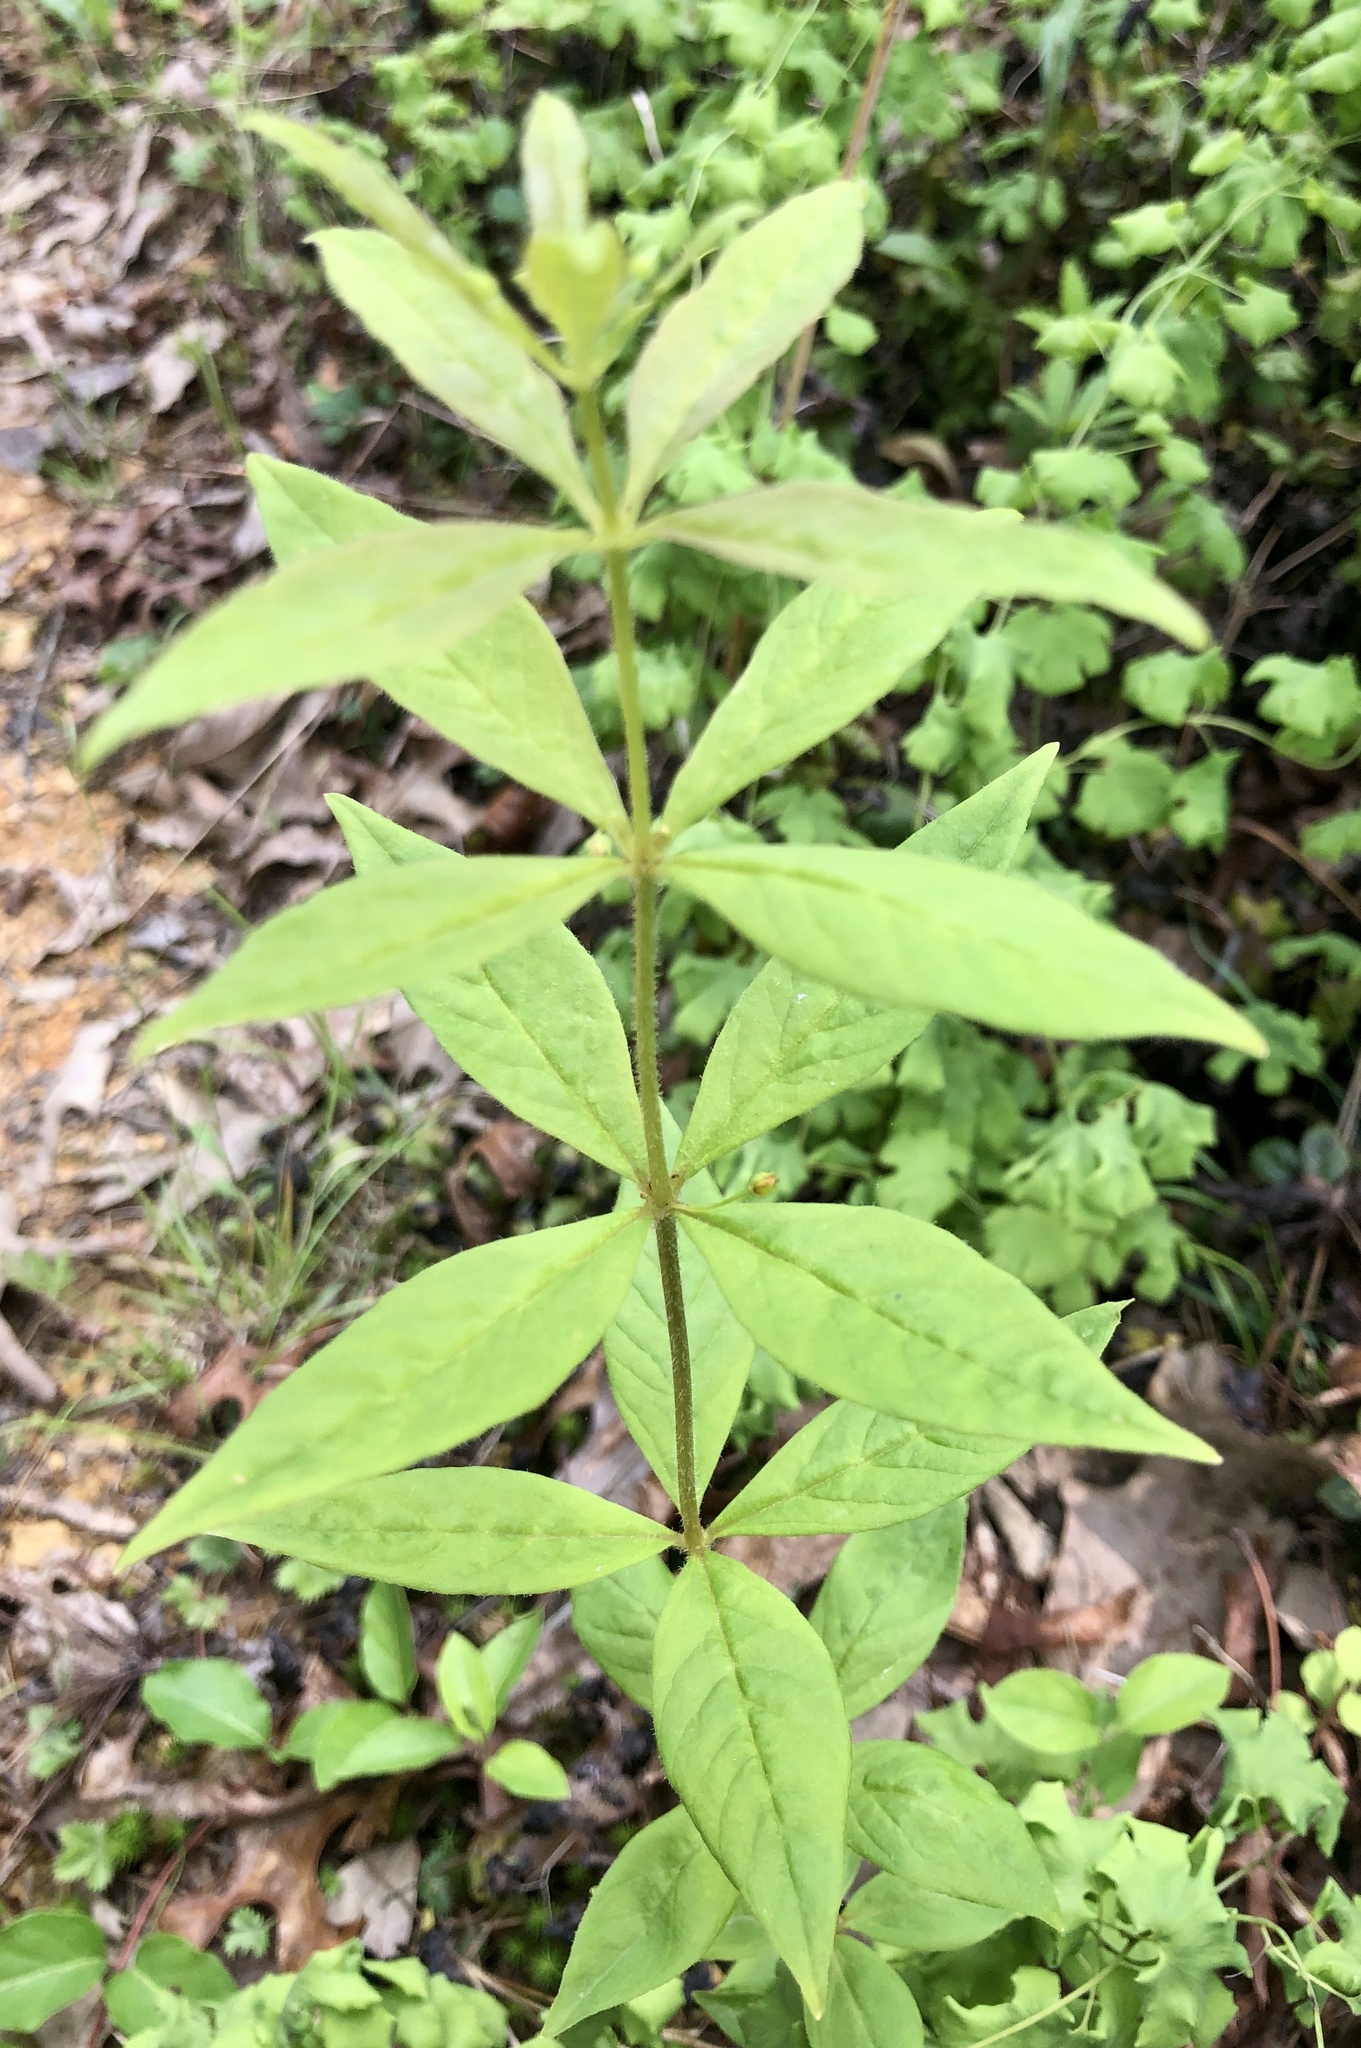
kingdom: Plantae
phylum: Tracheophyta
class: Magnoliopsida
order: Ericales
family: Primulaceae
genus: Lysimachia
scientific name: Lysimachia quadrifolia
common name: Whorled loosestrife
